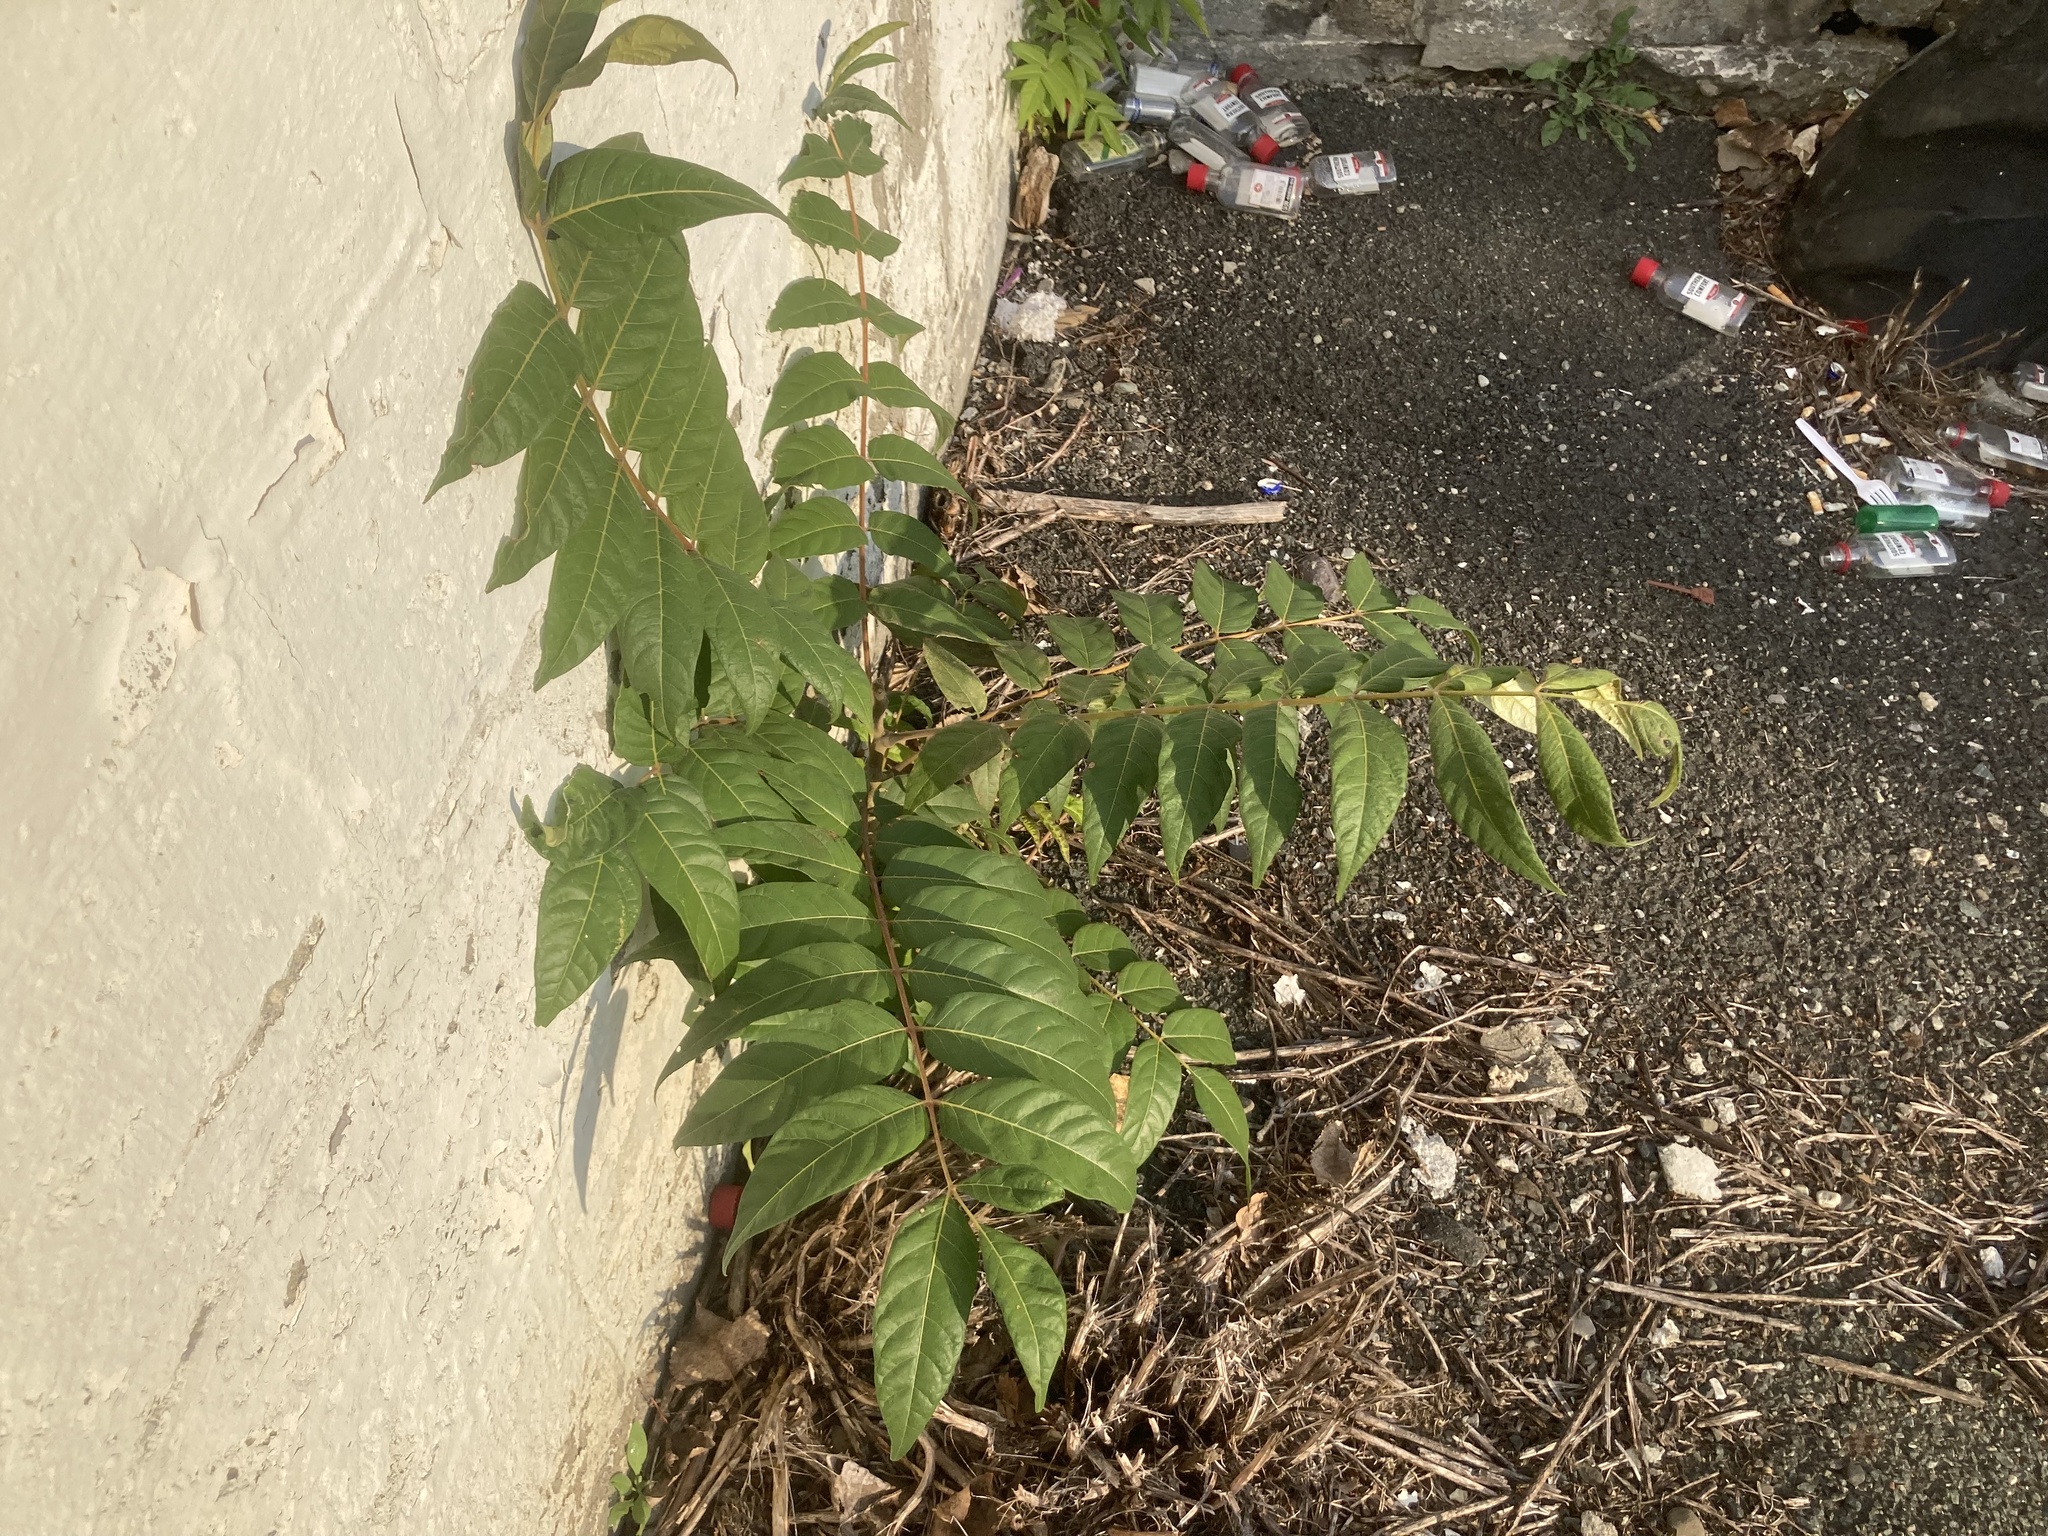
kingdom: Plantae
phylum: Tracheophyta
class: Magnoliopsida
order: Sapindales
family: Simaroubaceae
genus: Ailanthus
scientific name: Ailanthus altissima
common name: Tree-of-heaven
